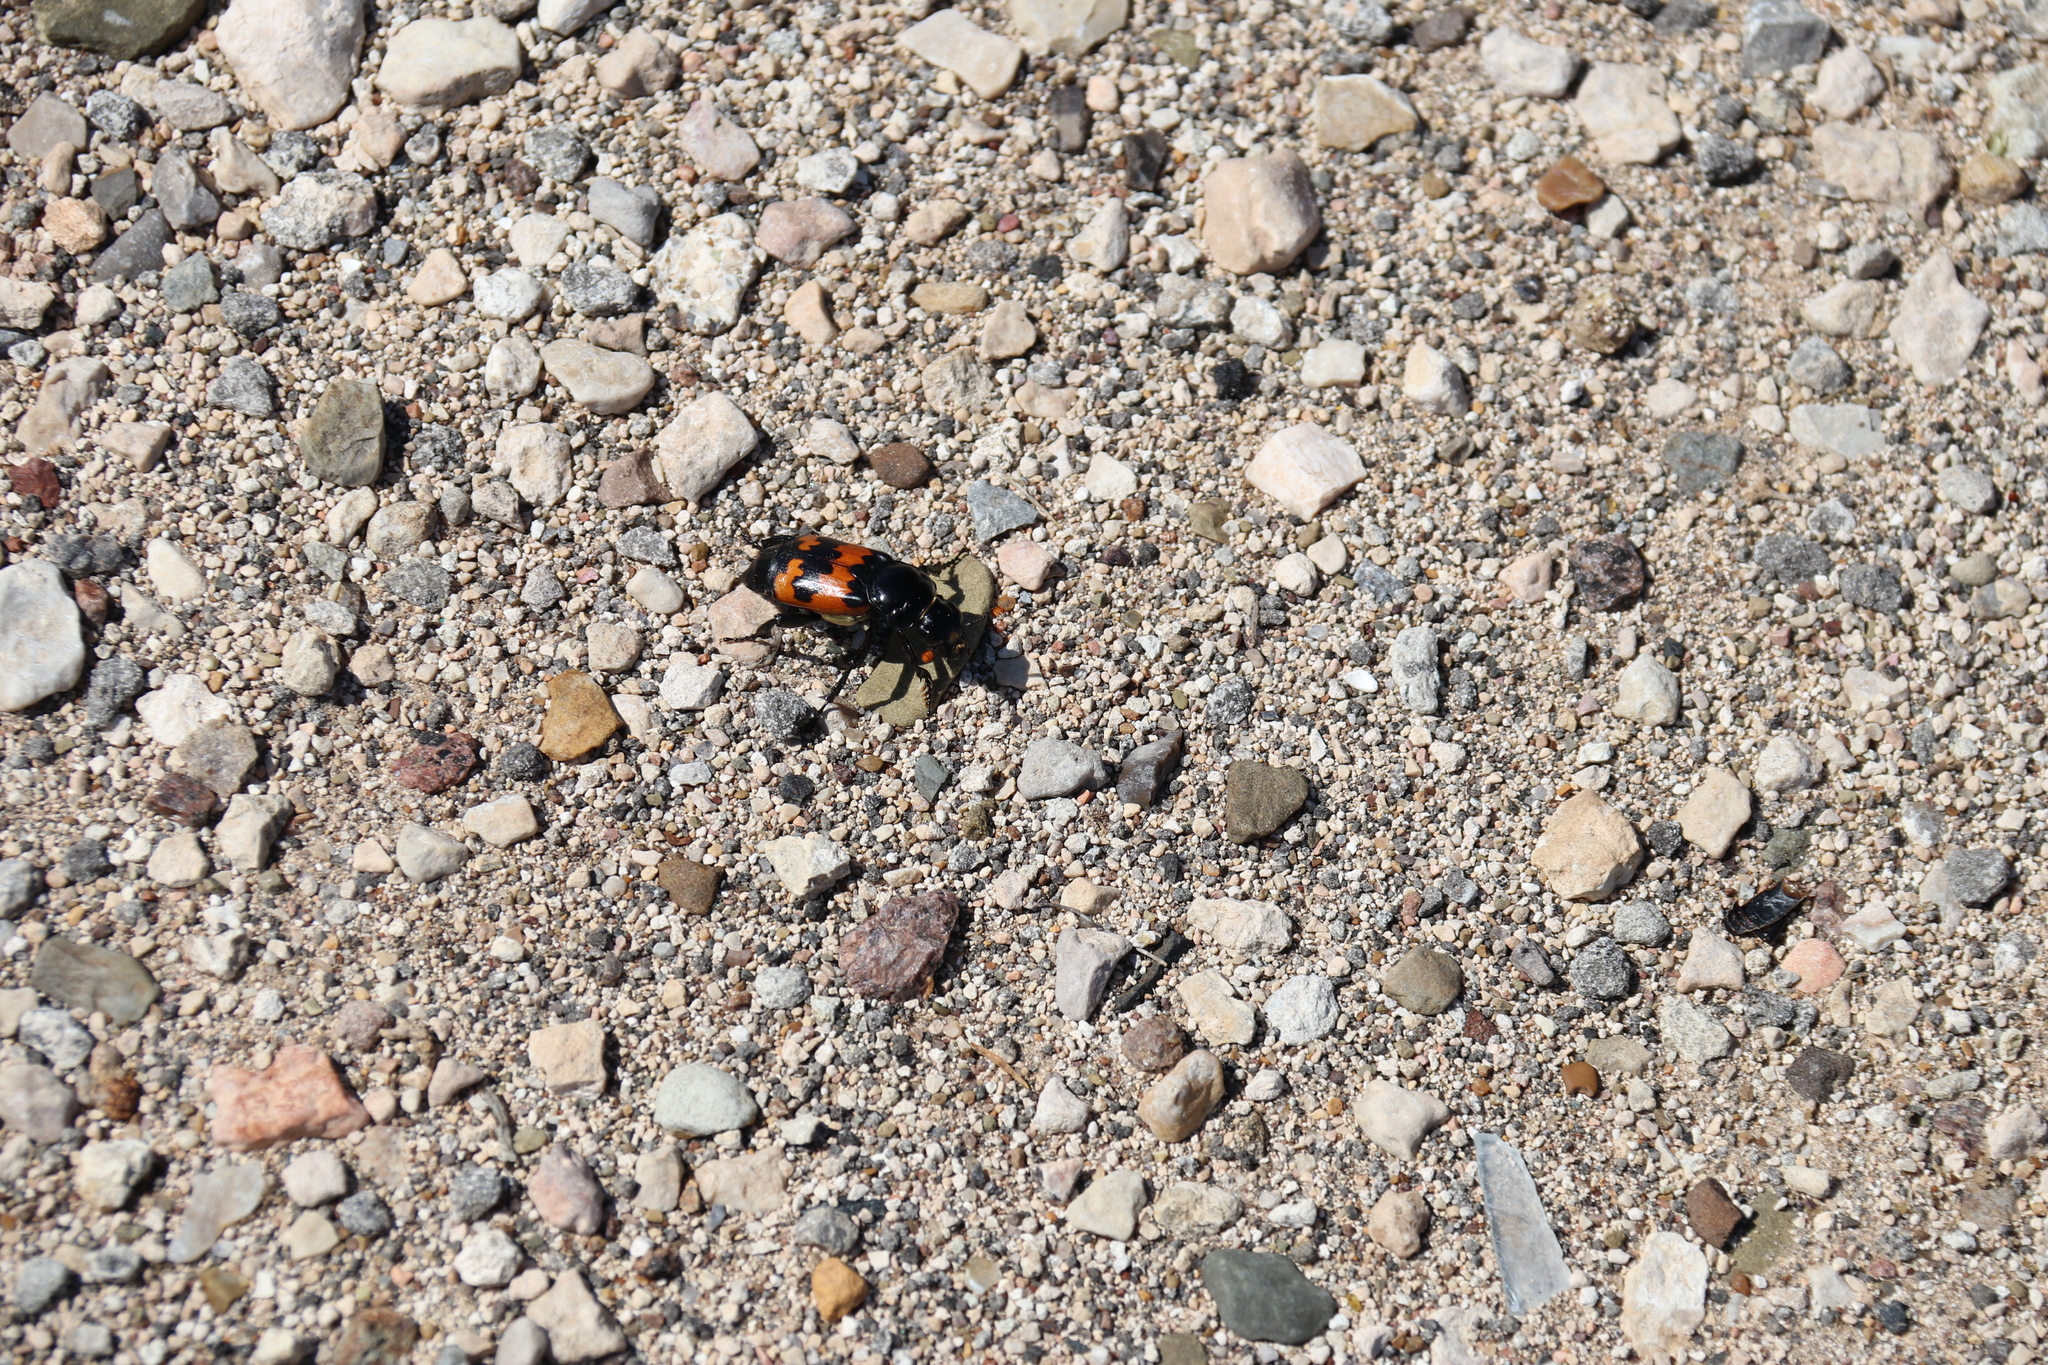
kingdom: Animalia
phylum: Arthropoda
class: Insecta
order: Coleoptera
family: Staphylinidae
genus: Nicrophorus
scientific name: Nicrophorus marginatus
